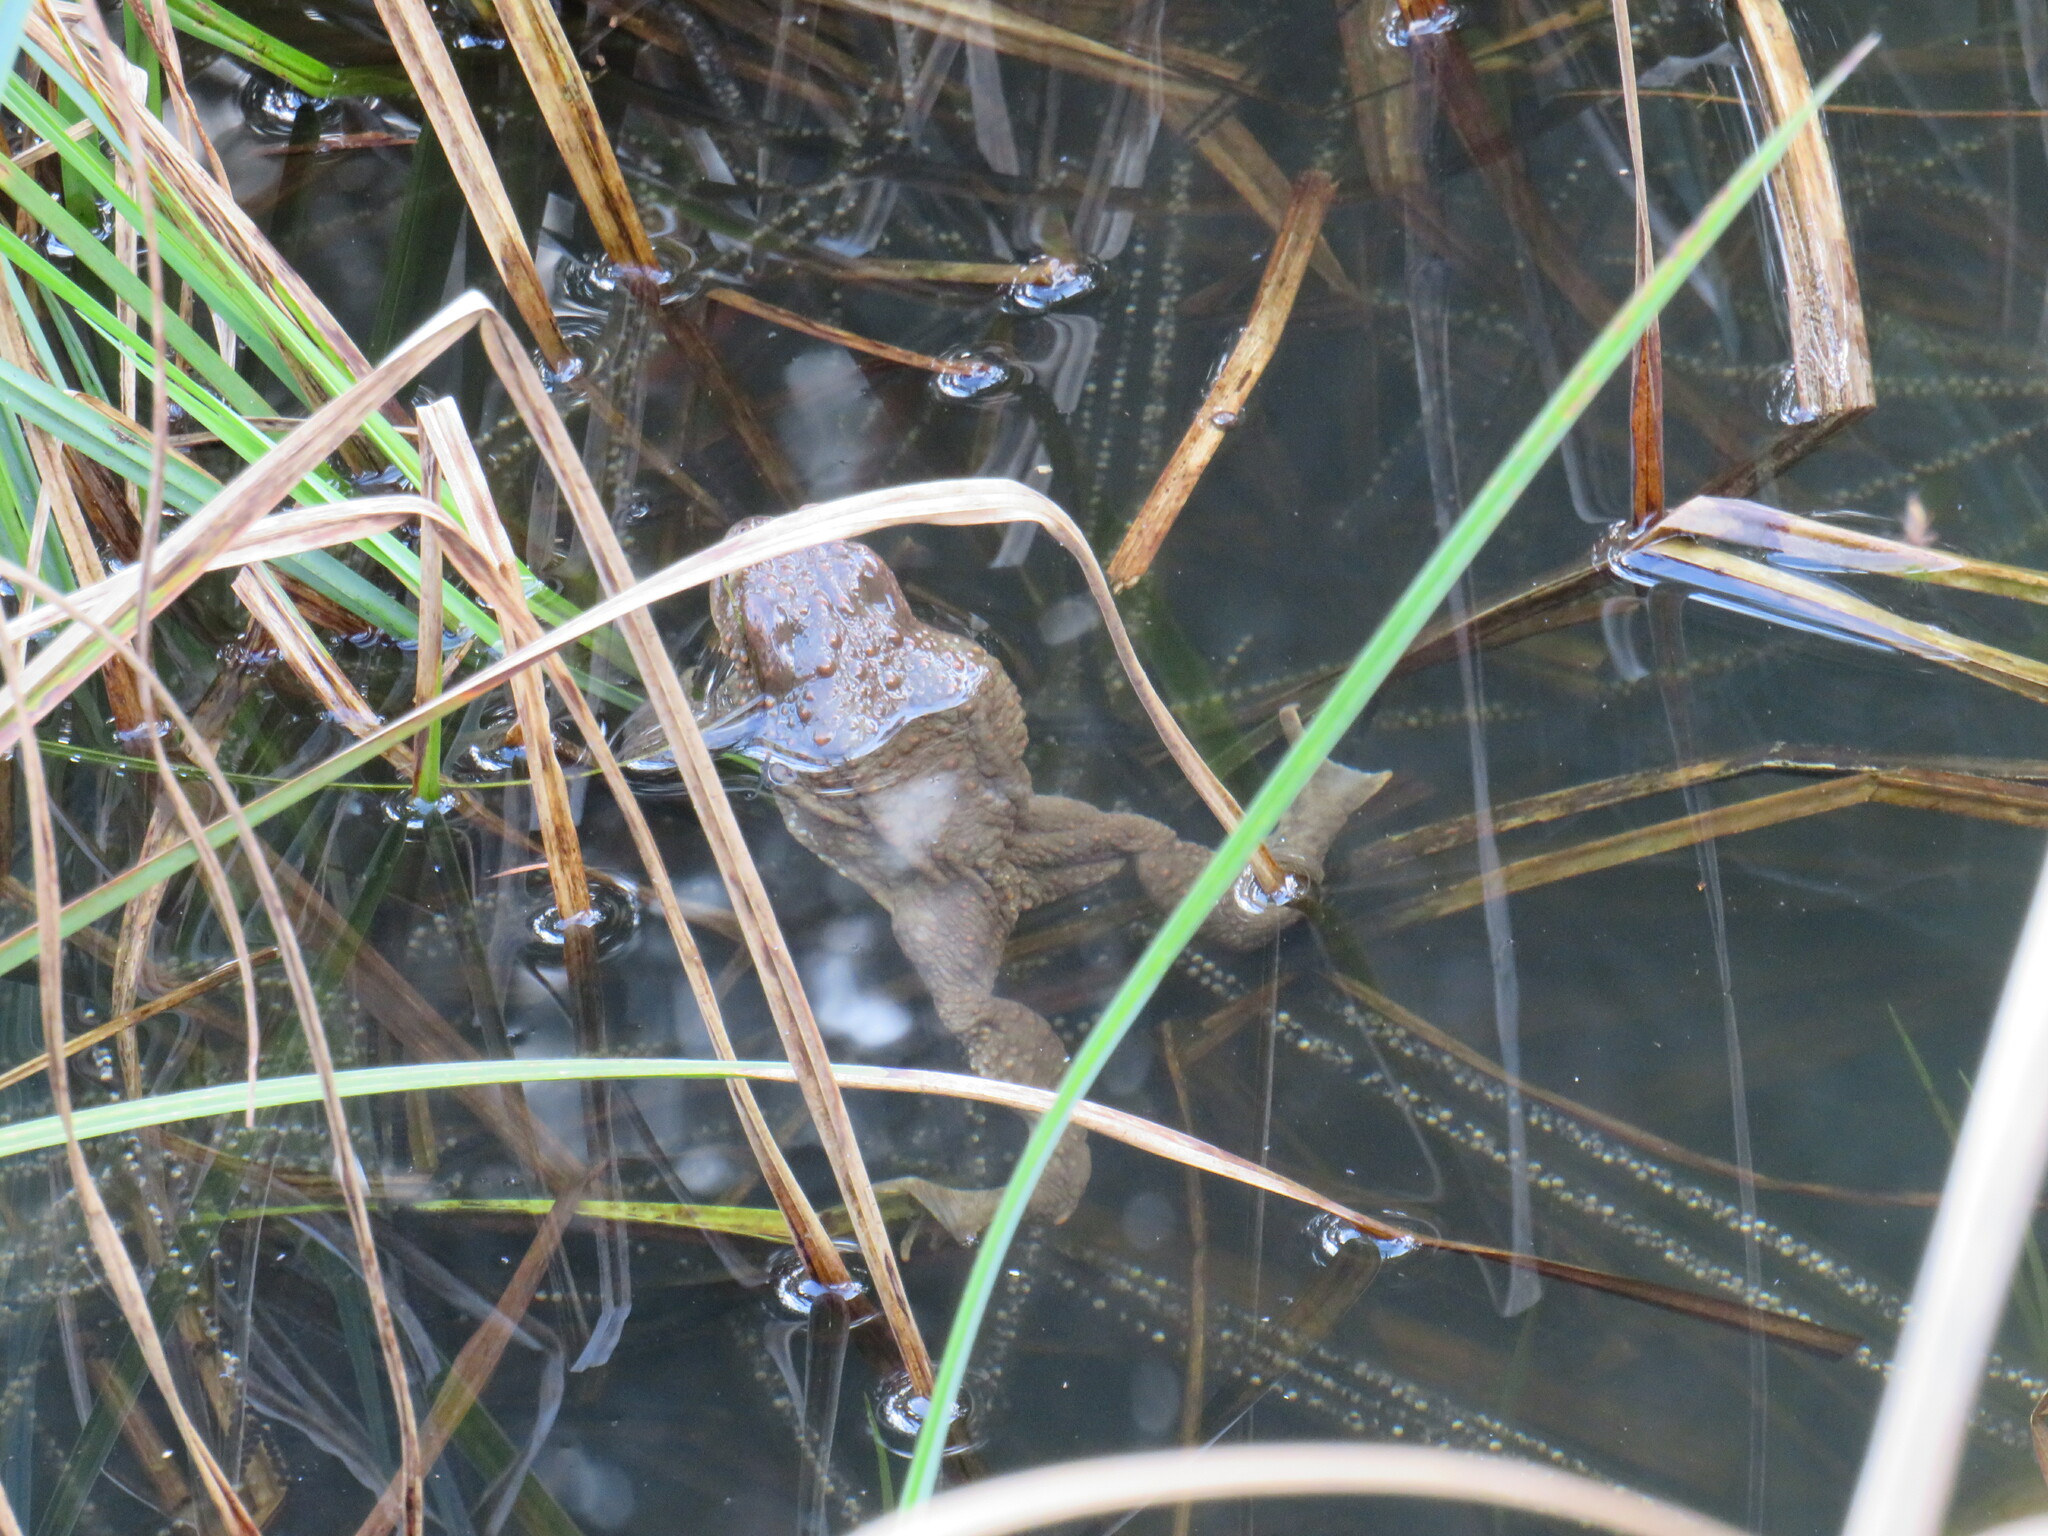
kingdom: Animalia
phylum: Chordata
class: Amphibia
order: Anura
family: Bufonidae
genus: Bufo
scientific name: Bufo bufo
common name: Common toad
